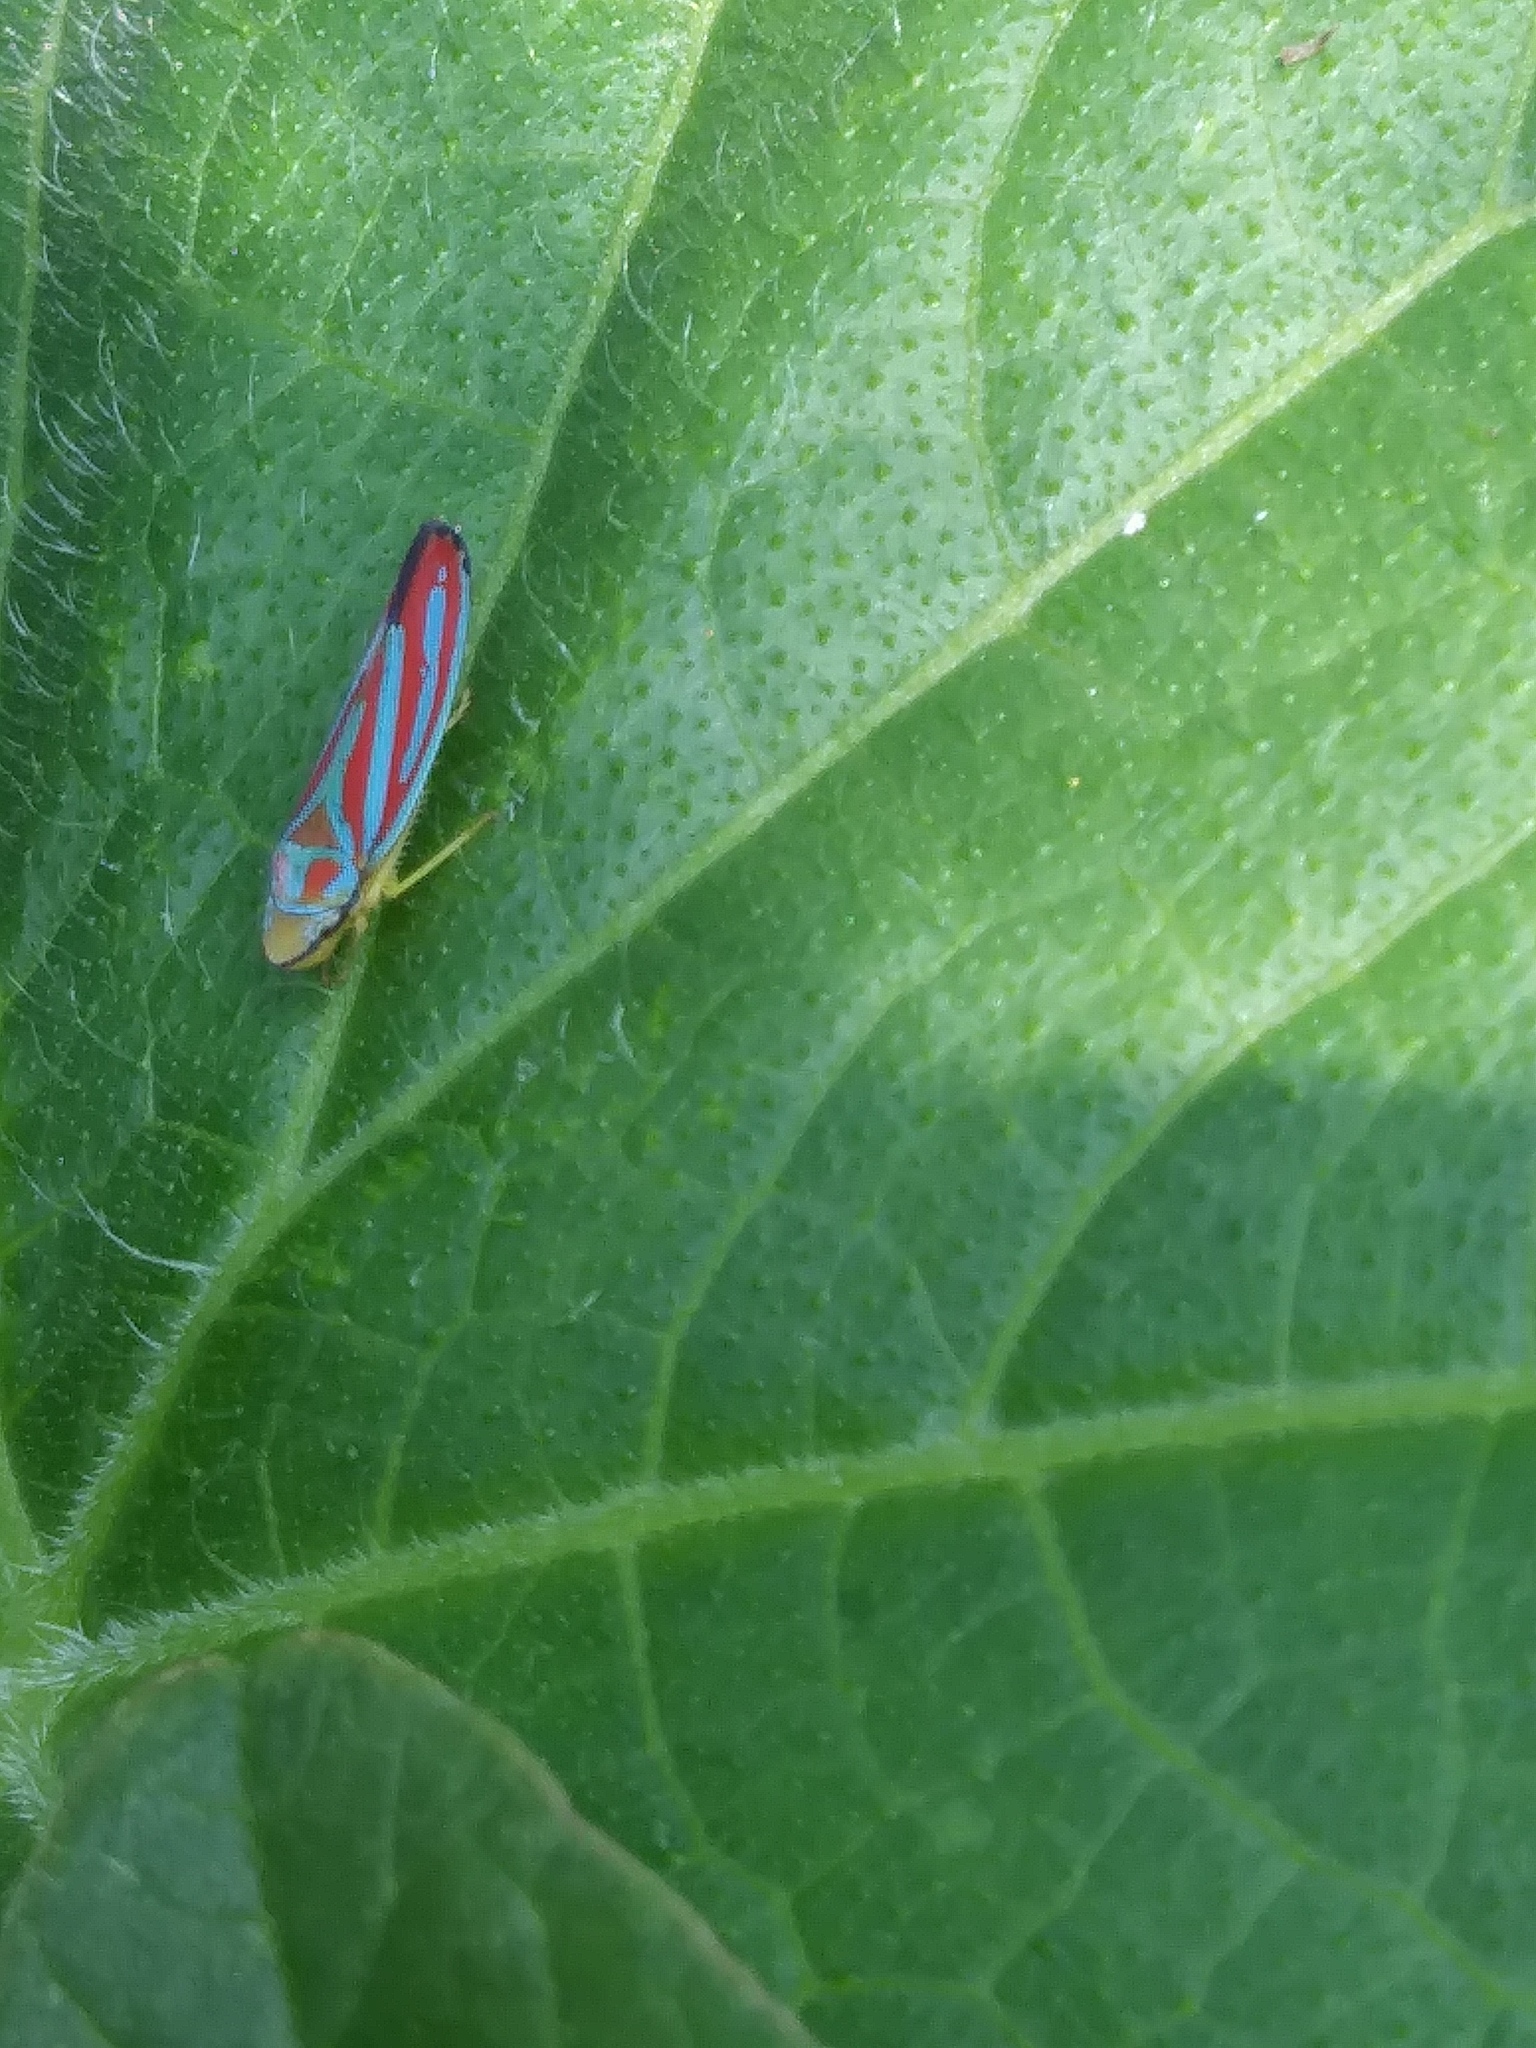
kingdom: Animalia
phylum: Arthropoda
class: Insecta
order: Hemiptera
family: Cicadellidae
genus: Graphocephala
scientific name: Graphocephala coccinea
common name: Candy-striped leafhopper
